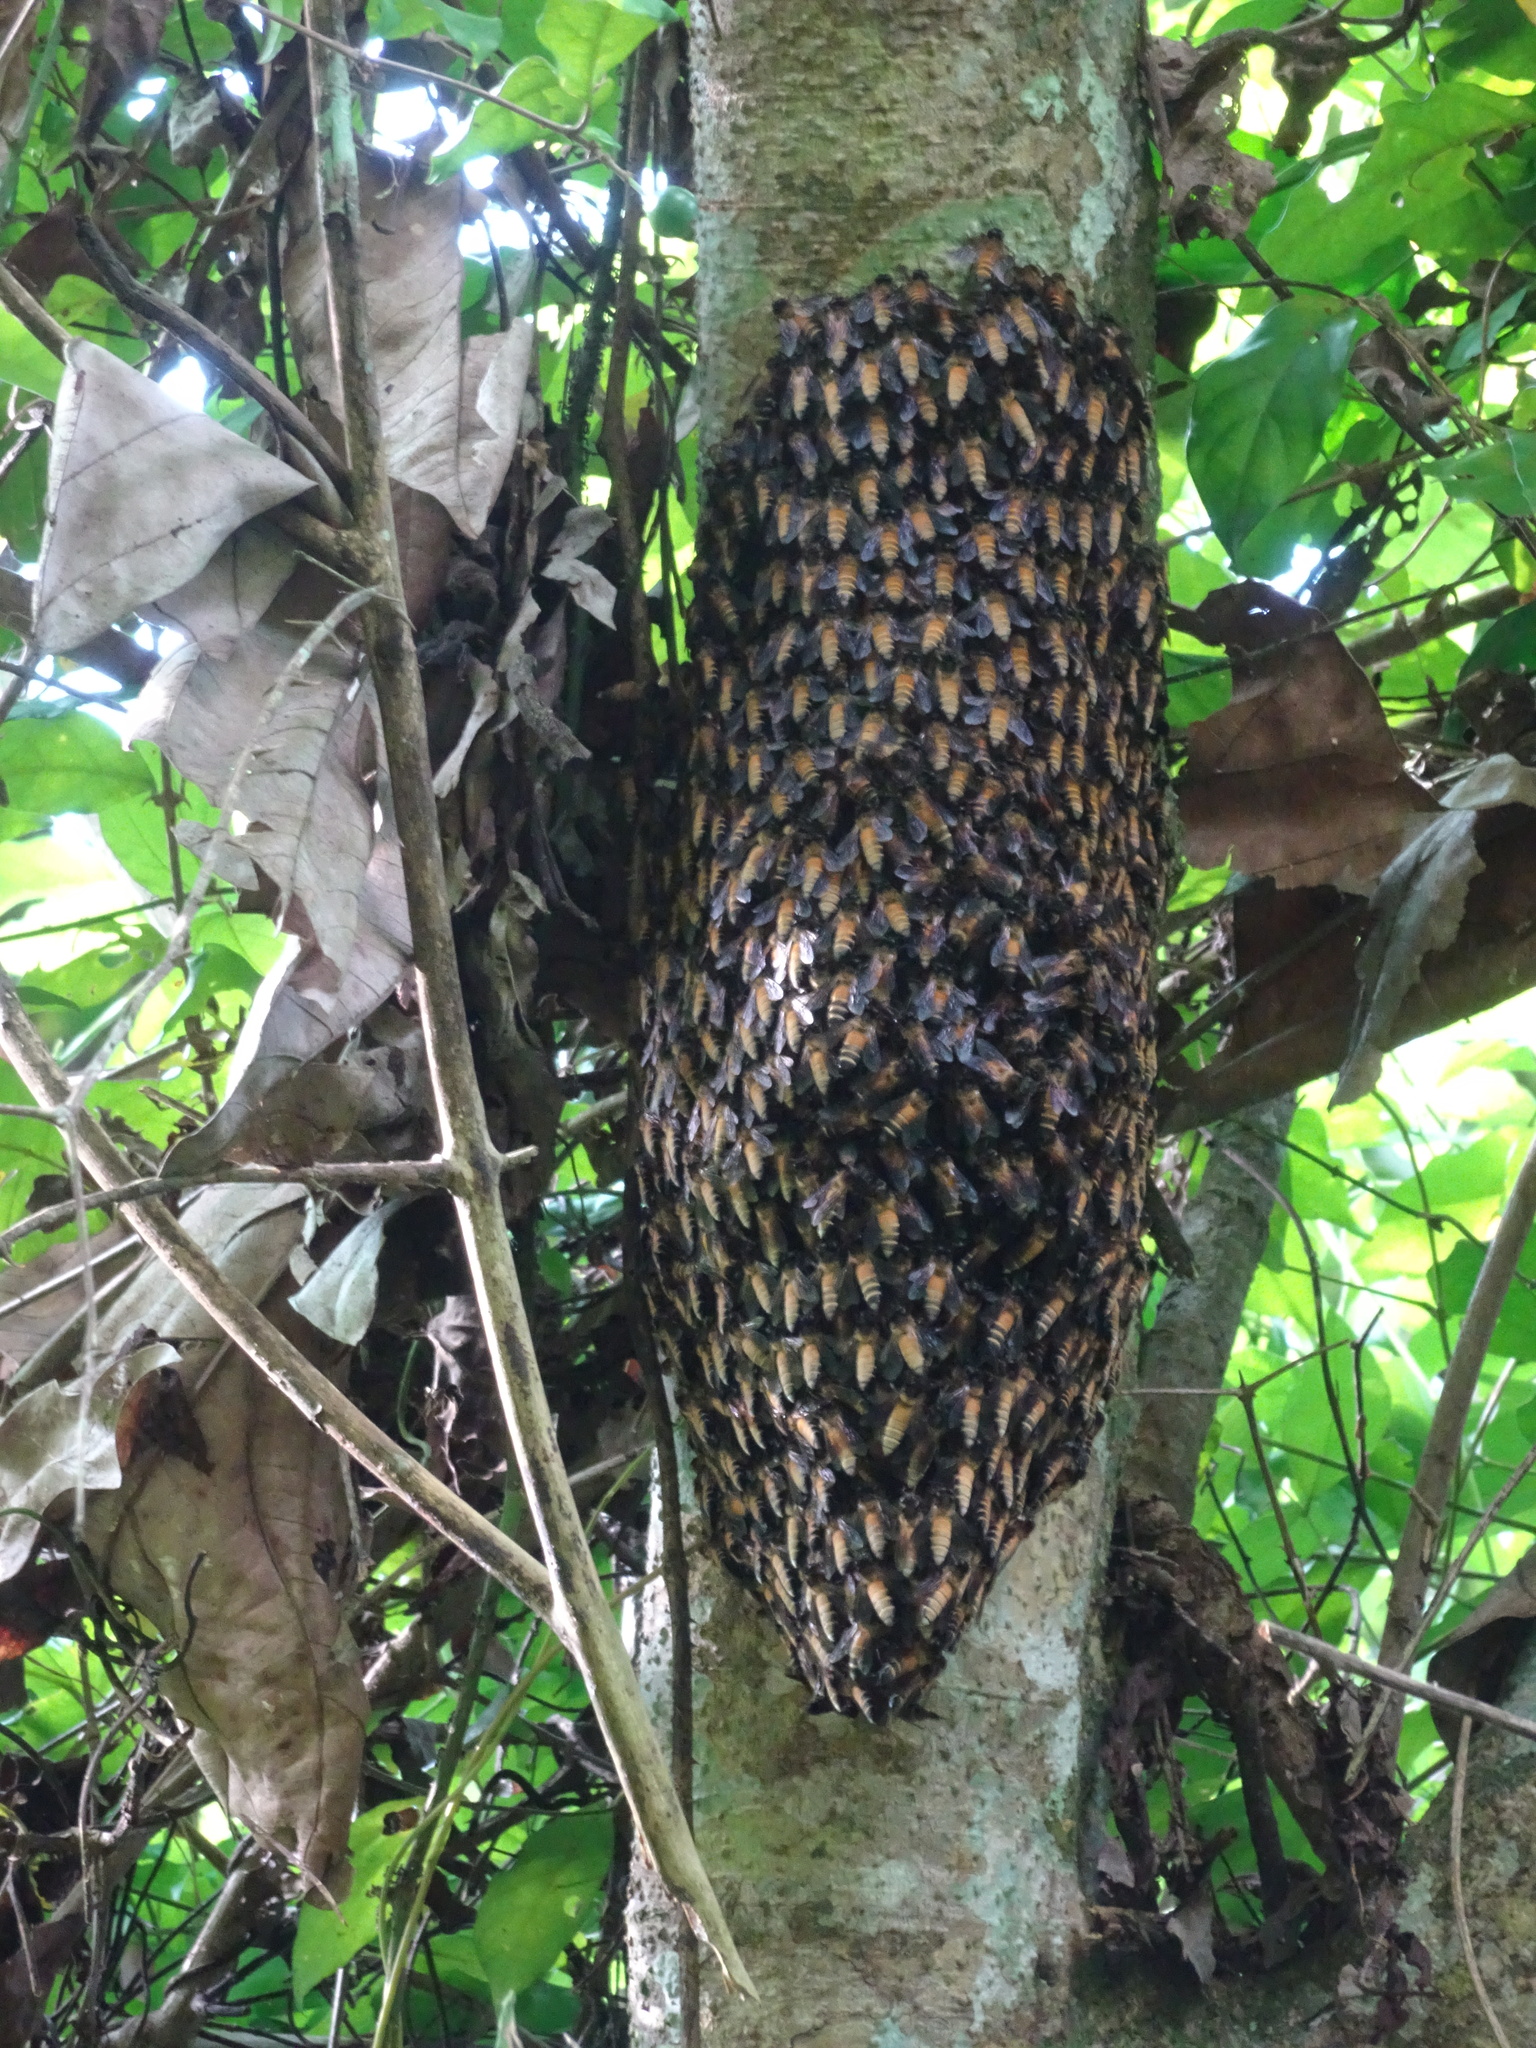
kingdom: Animalia
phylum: Arthropoda
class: Insecta
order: Hymenoptera
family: Apidae
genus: Apis
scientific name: Apis dorsata
